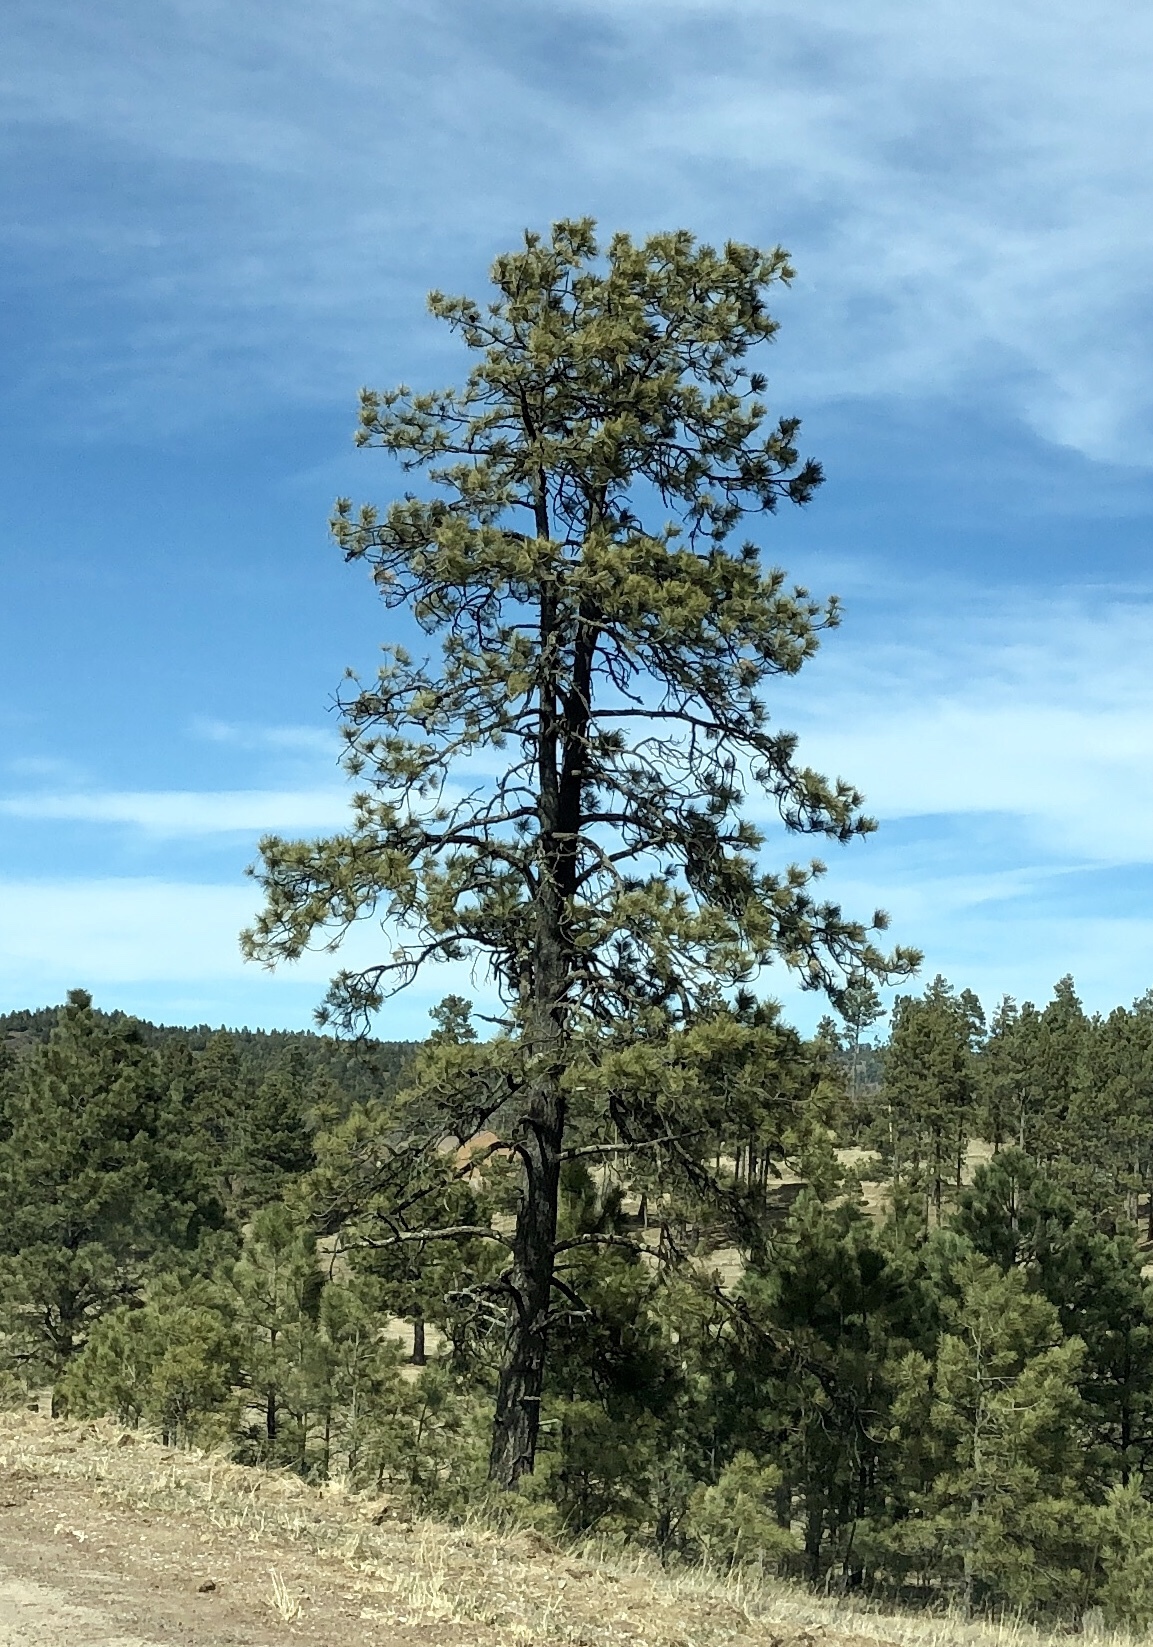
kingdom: Plantae
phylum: Tracheophyta
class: Pinopsida
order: Pinales
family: Pinaceae
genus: Pinus
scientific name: Pinus ponderosa
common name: Western yellow-pine
